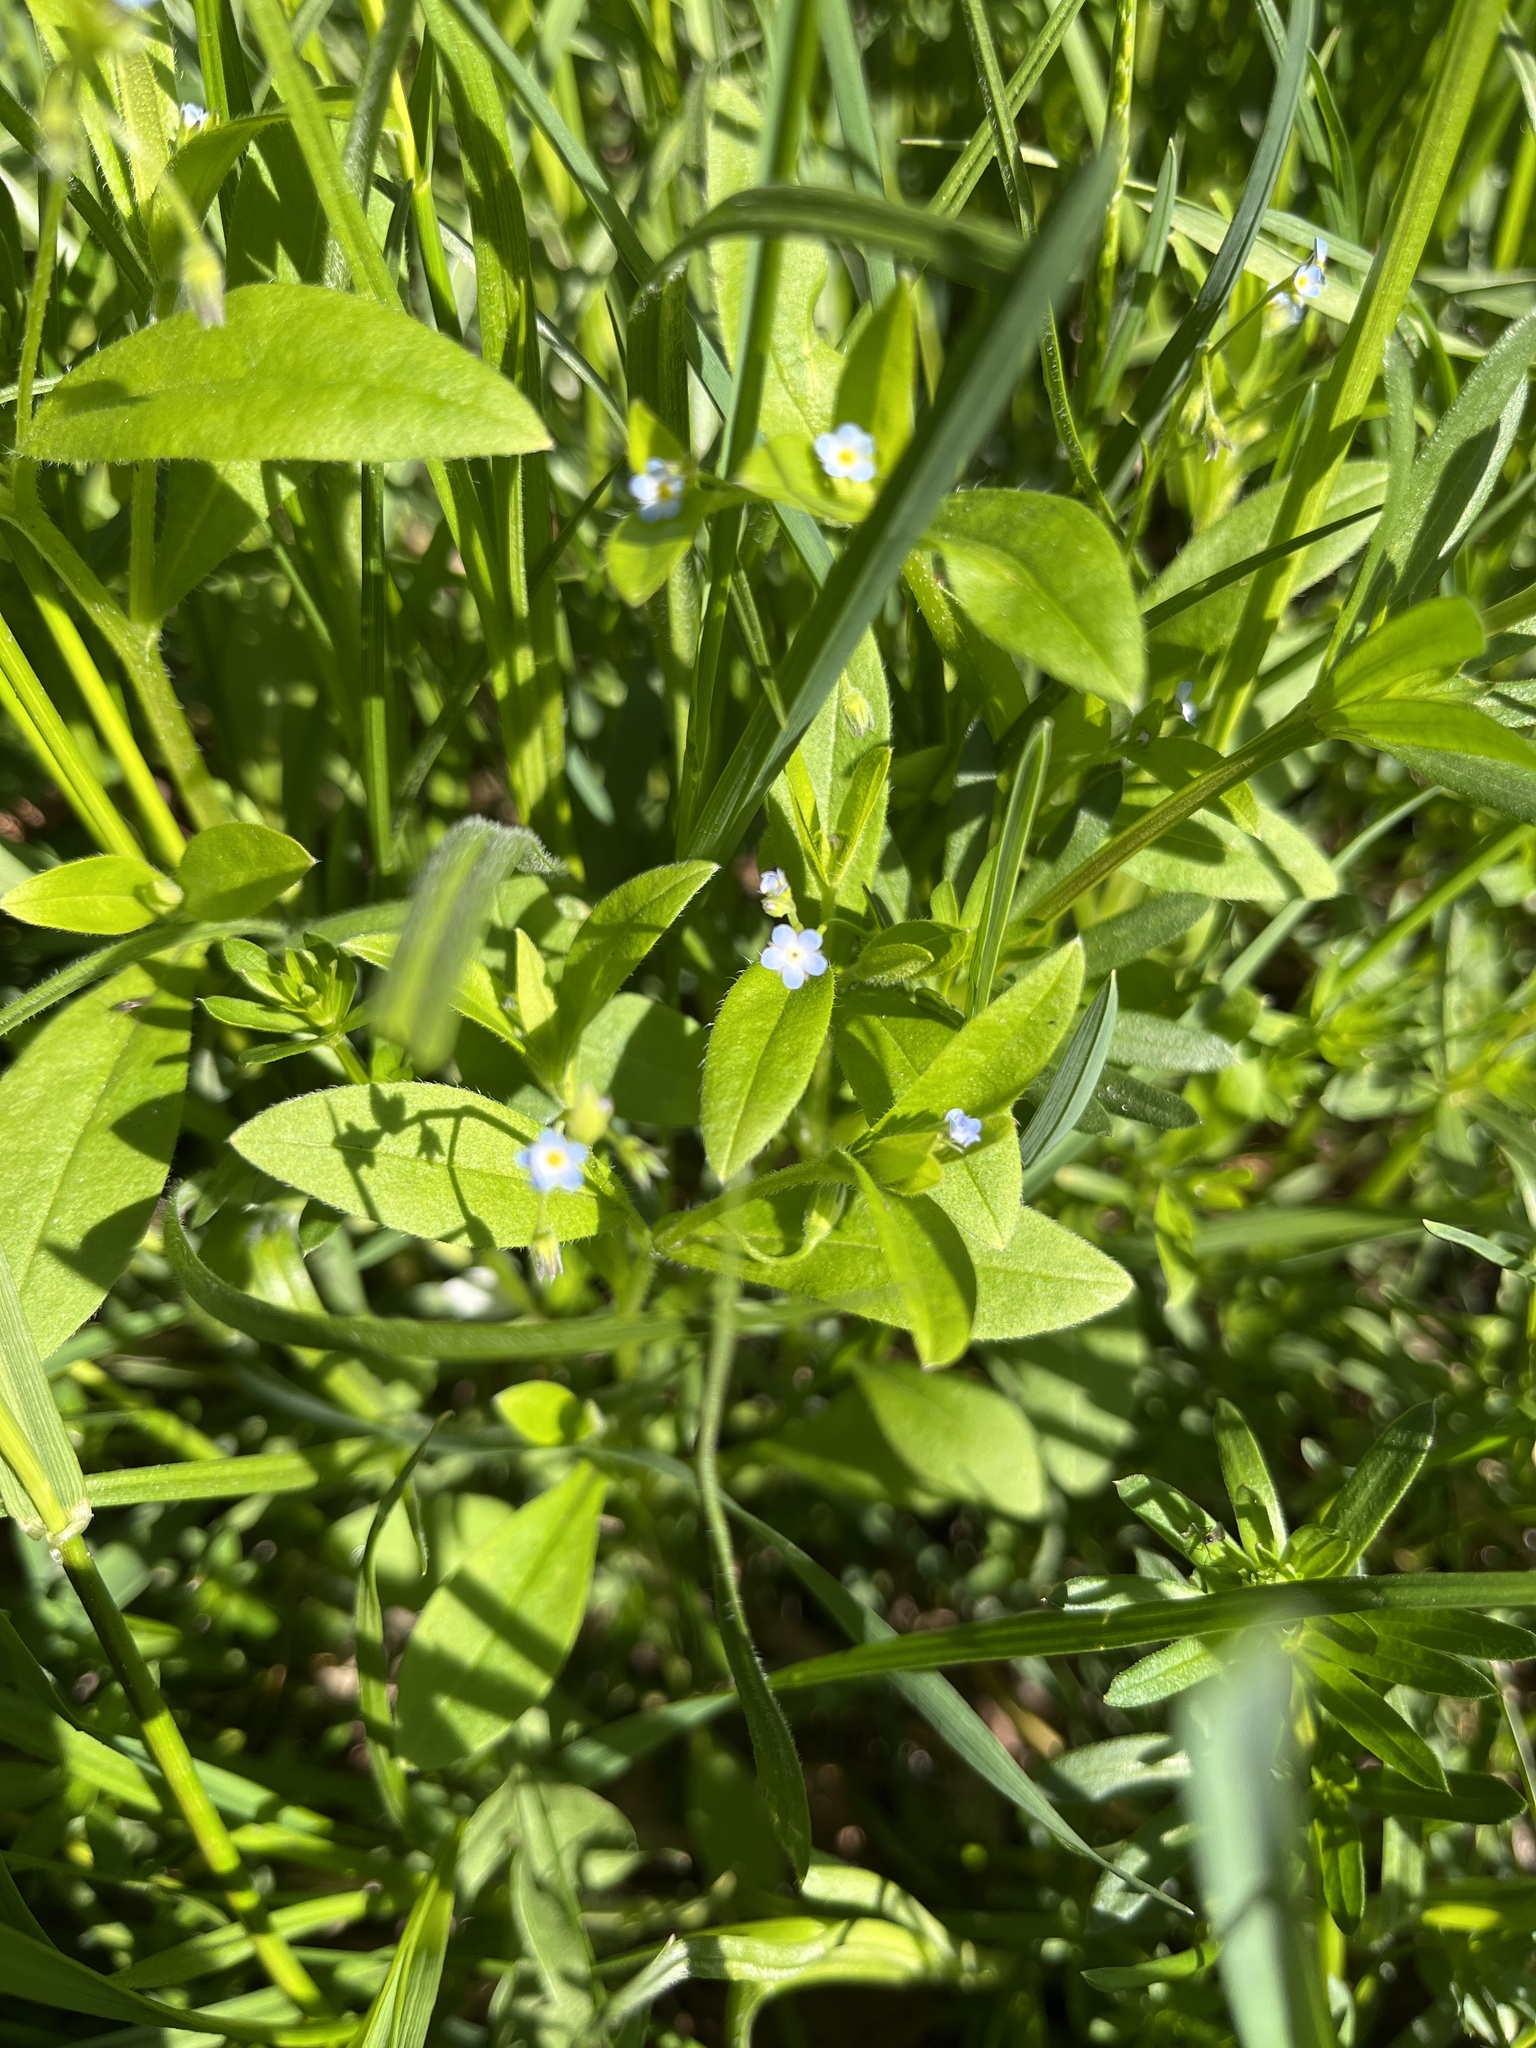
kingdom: Plantae
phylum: Tracheophyta
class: Magnoliopsida
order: Boraginales
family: Boraginaceae
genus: Myosotis
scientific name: Myosotis sparsiflora
